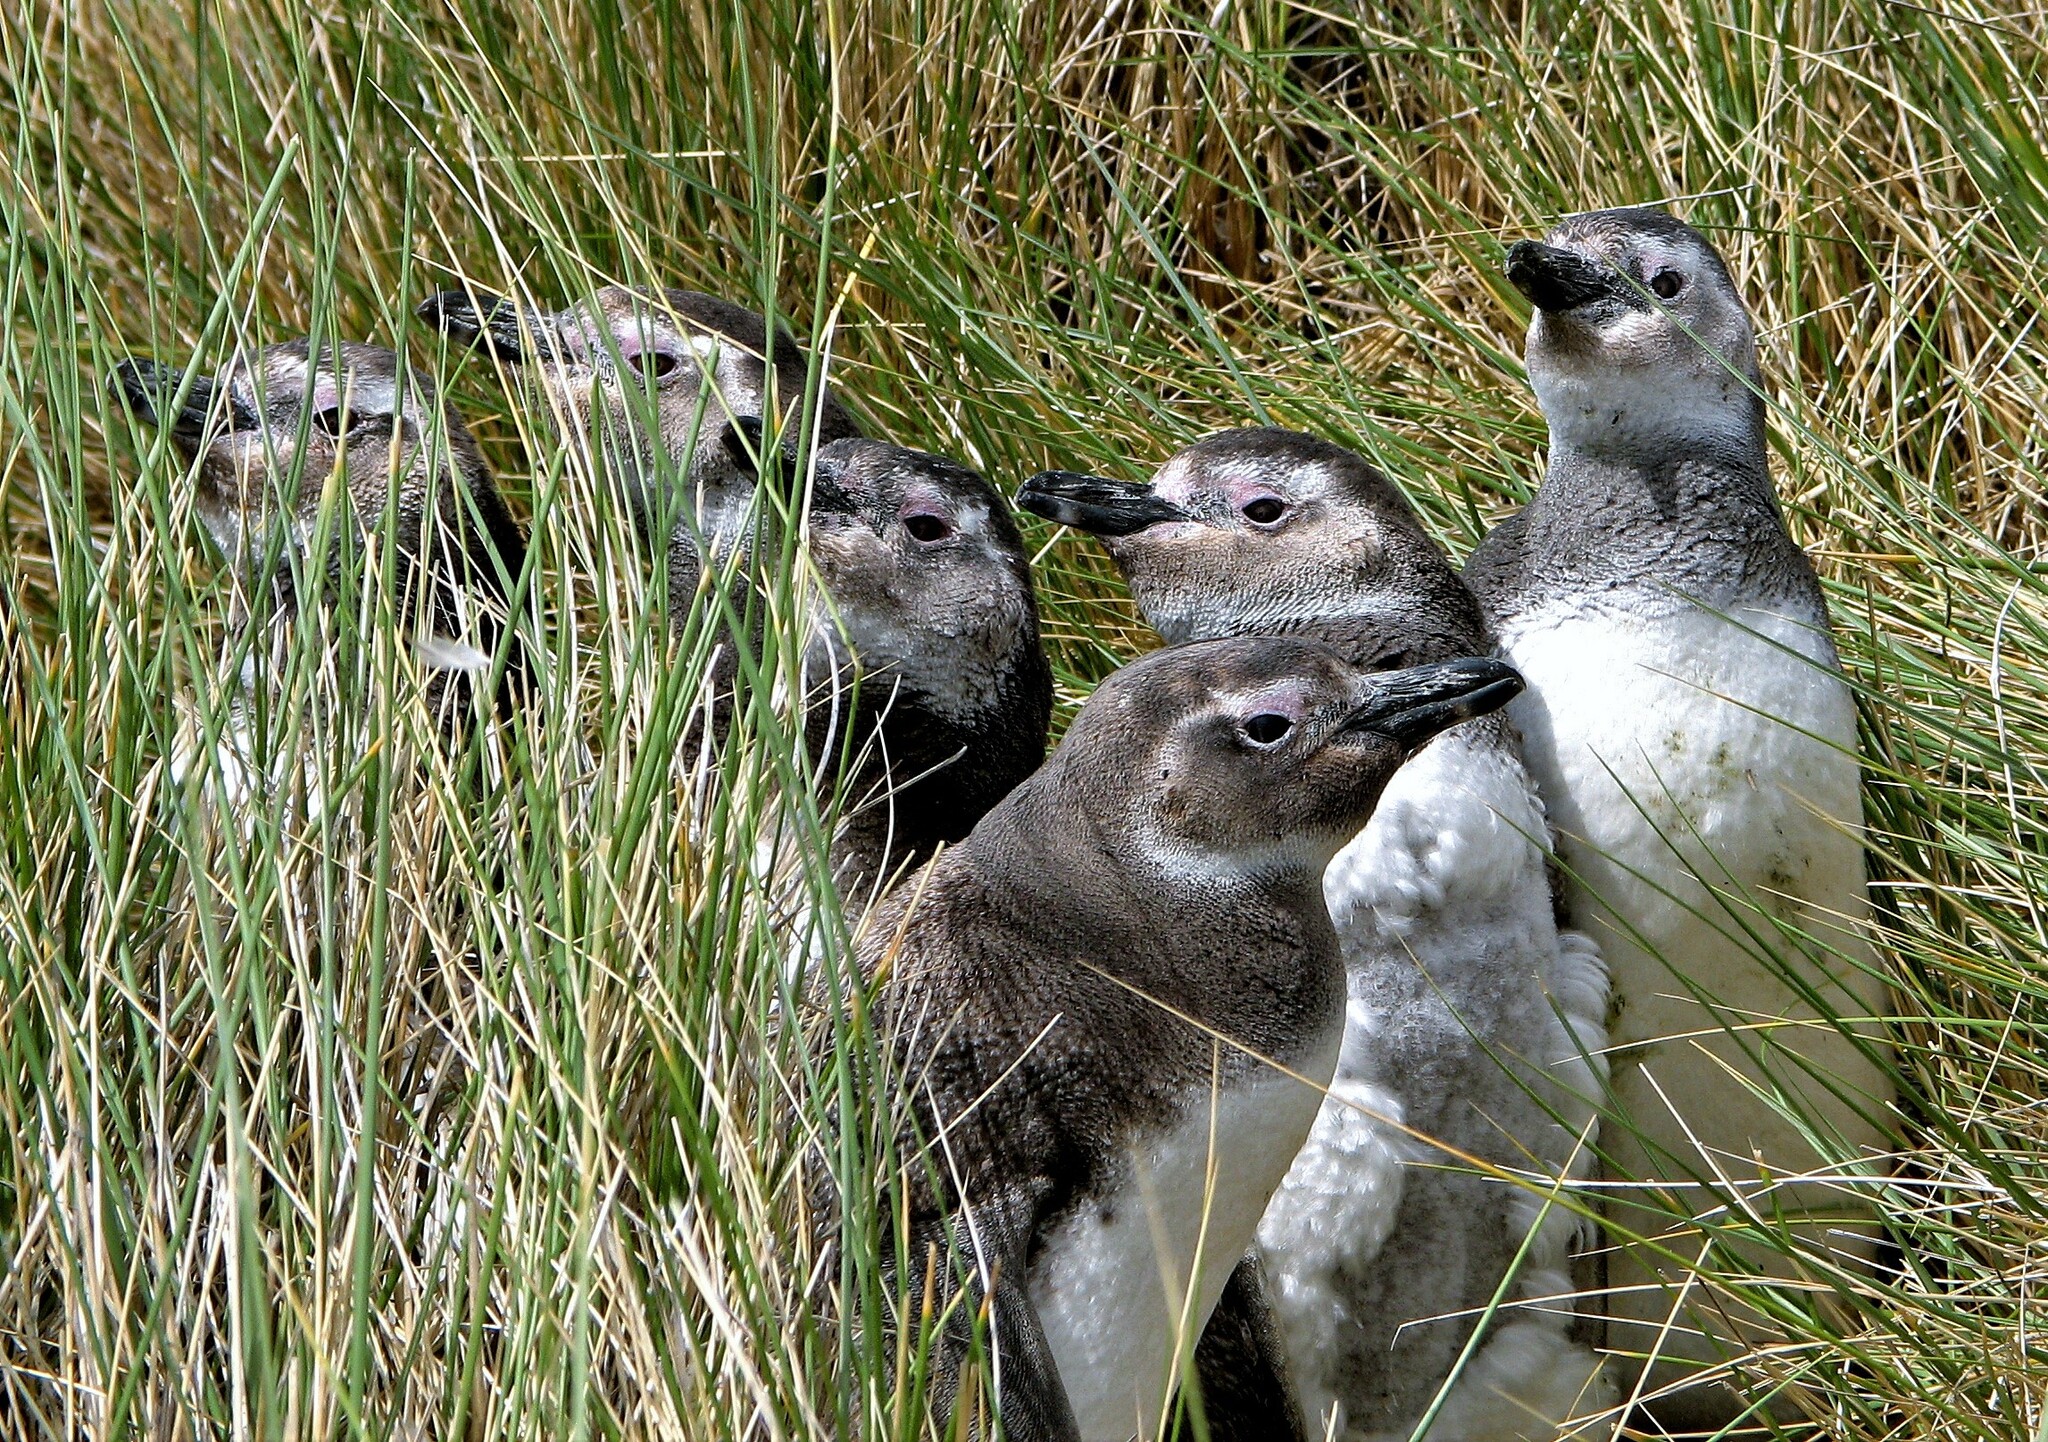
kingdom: Animalia
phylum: Chordata
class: Aves
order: Sphenisciformes
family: Spheniscidae
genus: Spheniscus
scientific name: Spheniscus magellanicus
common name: Magellanic penguin
